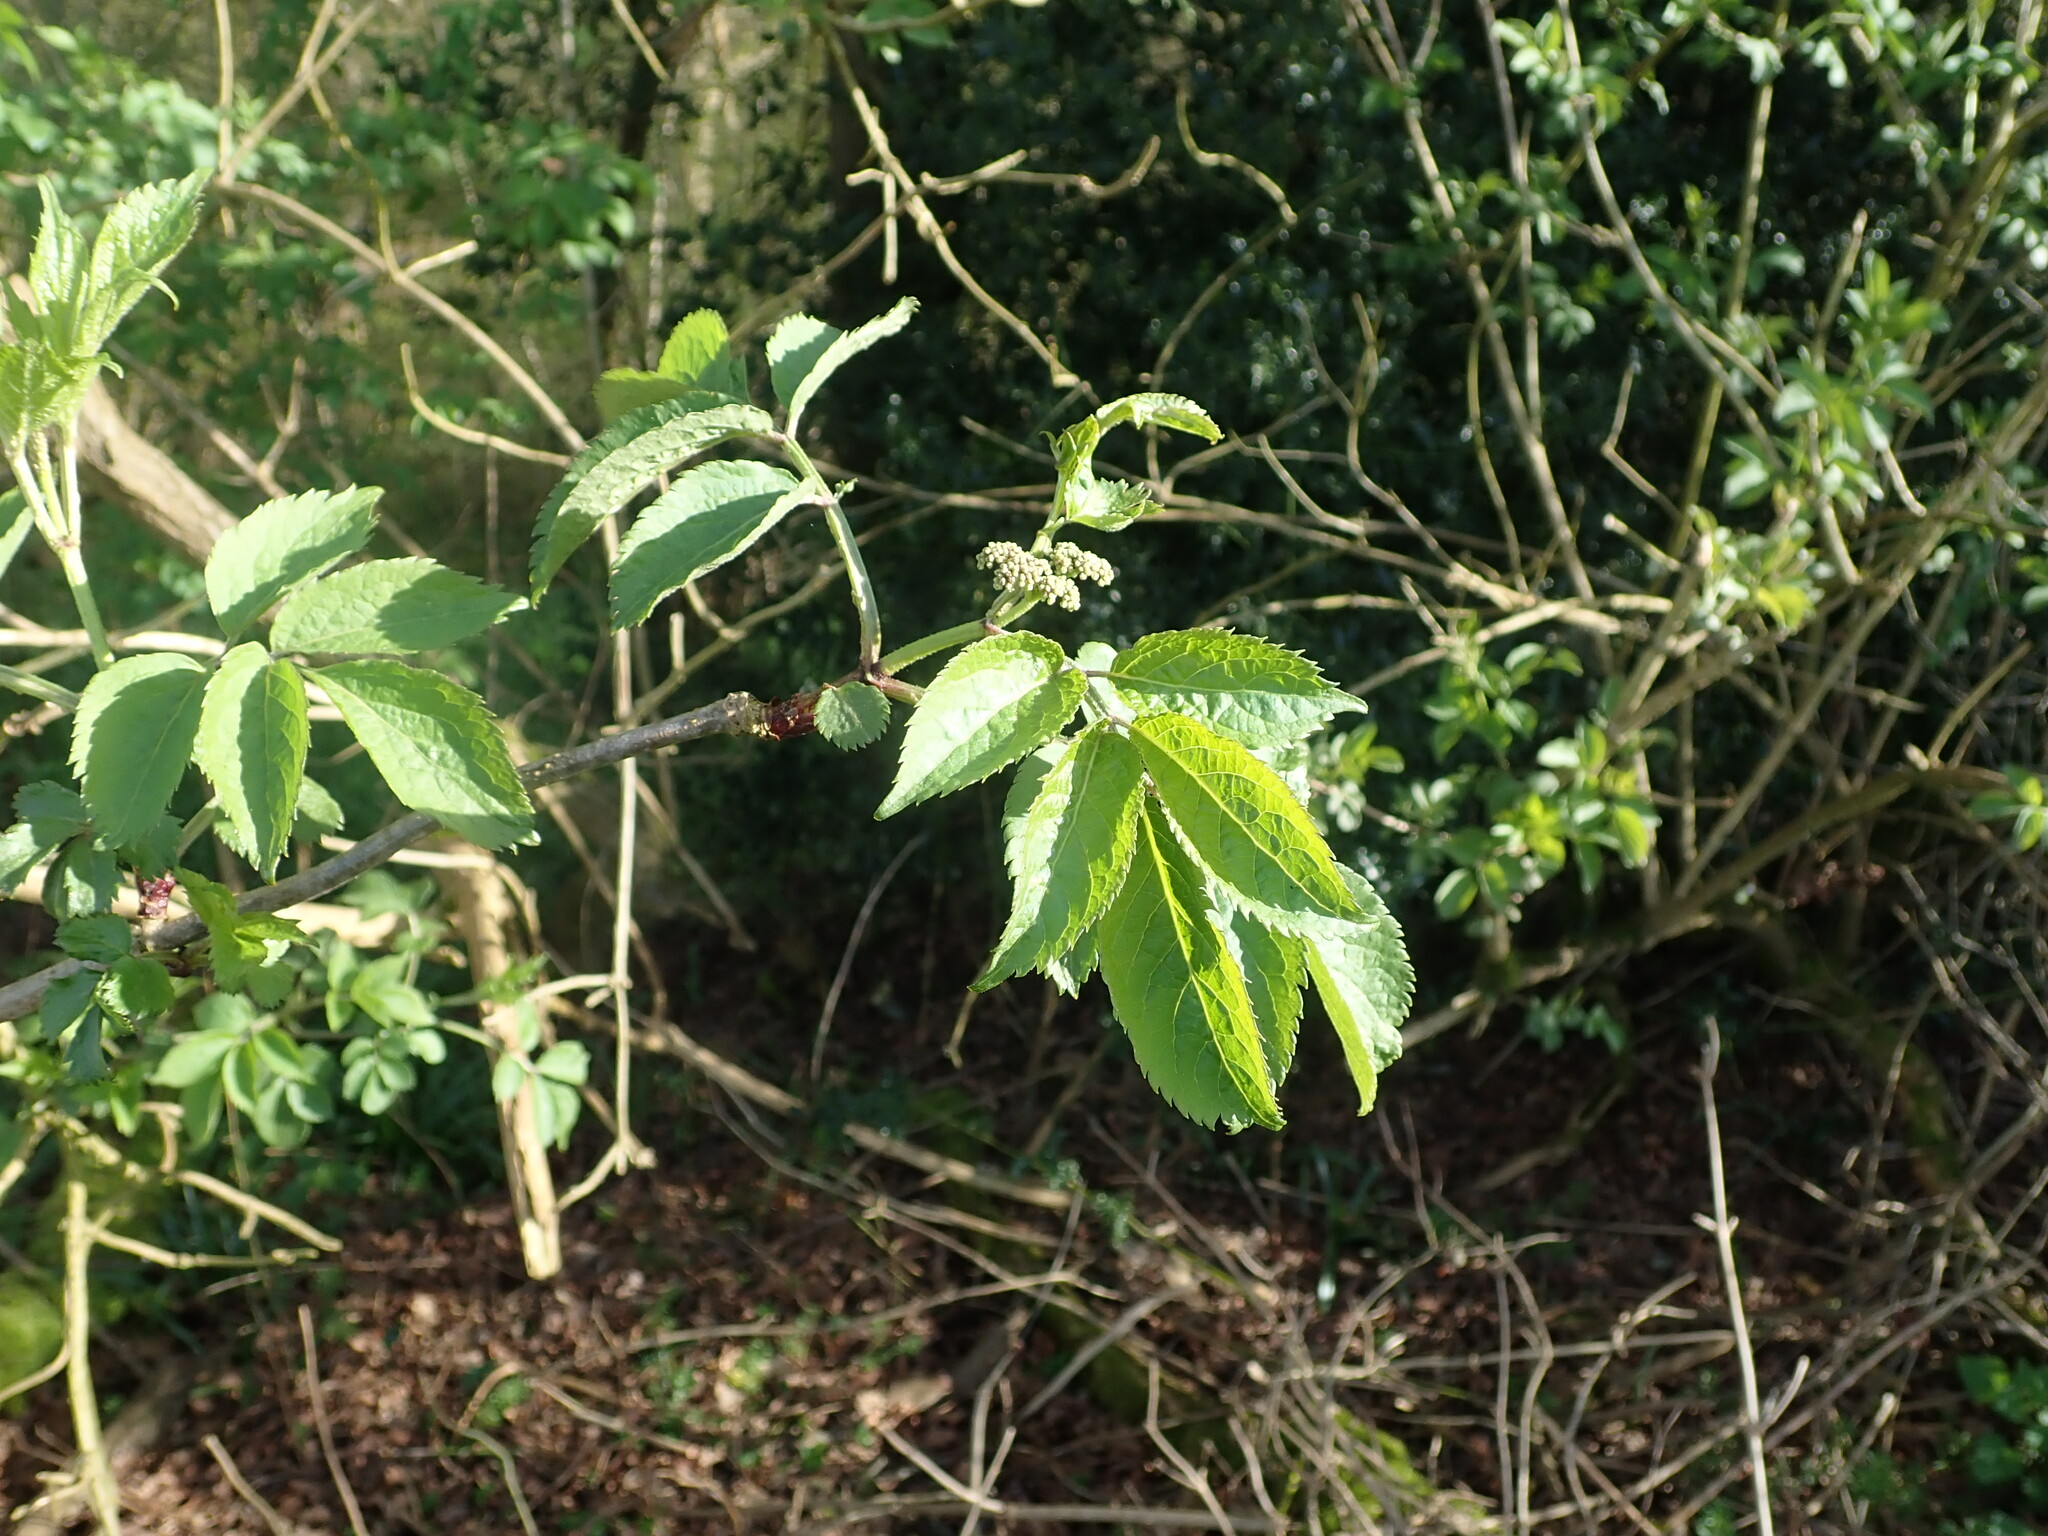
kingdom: Plantae
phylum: Tracheophyta
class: Magnoliopsida
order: Dipsacales
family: Viburnaceae
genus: Sambucus
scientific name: Sambucus nigra
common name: Elder
